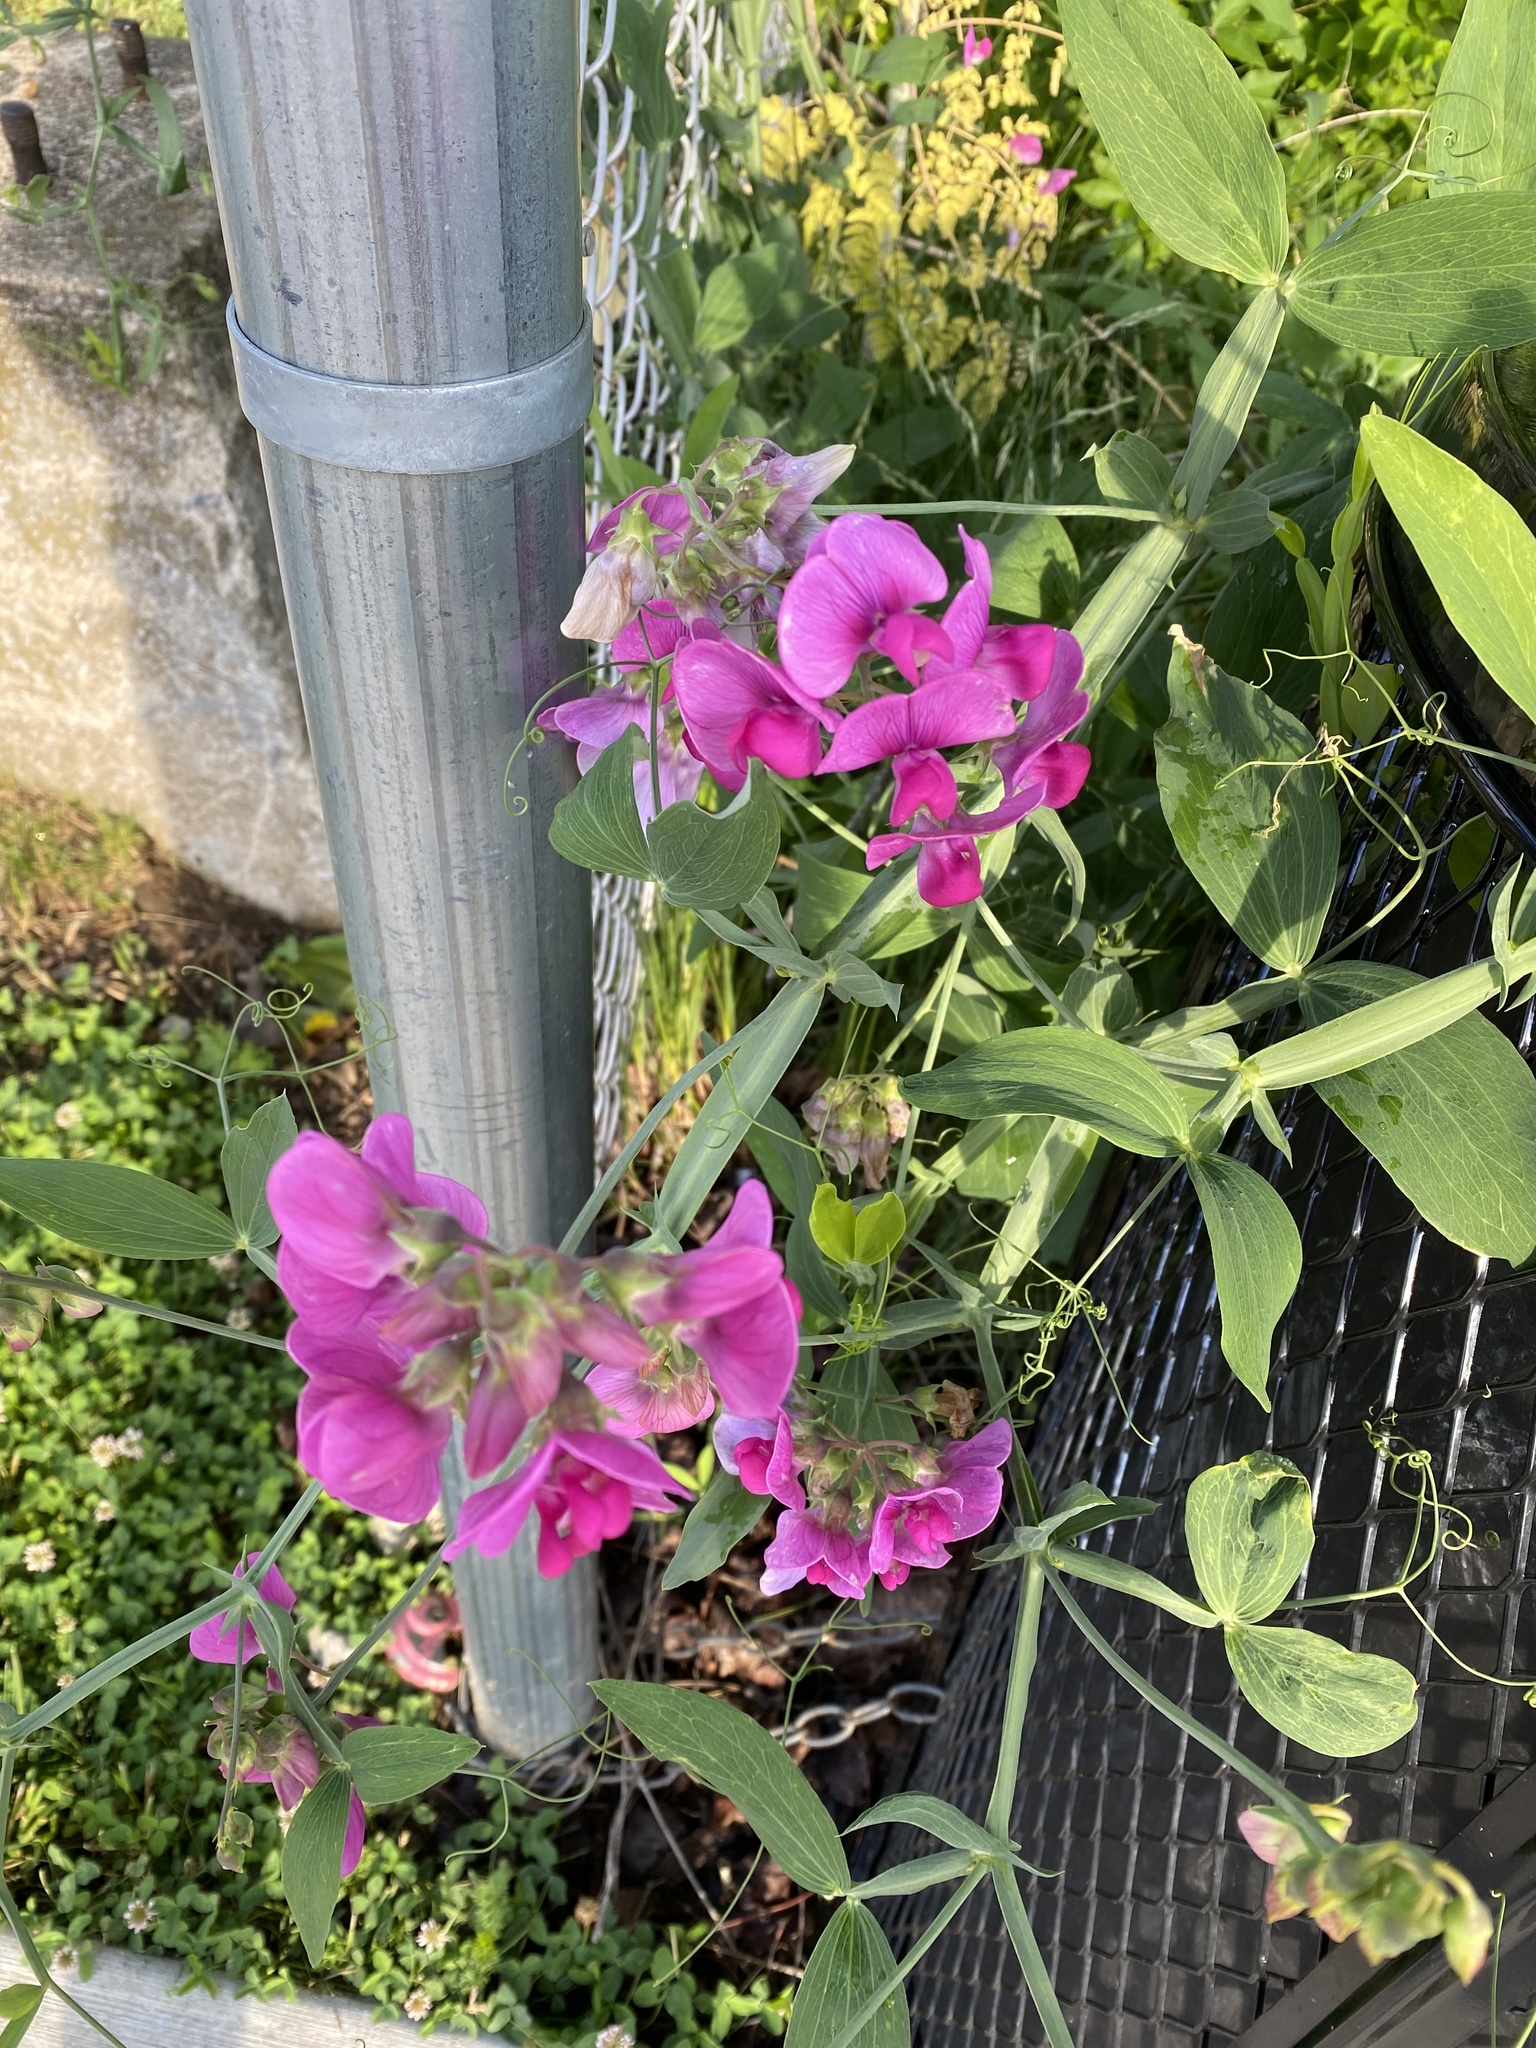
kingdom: Plantae
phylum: Tracheophyta
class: Magnoliopsida
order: Fabales
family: Fabaceae
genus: Lathyrus
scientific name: Lathyrus latifolius
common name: Perennial pea
